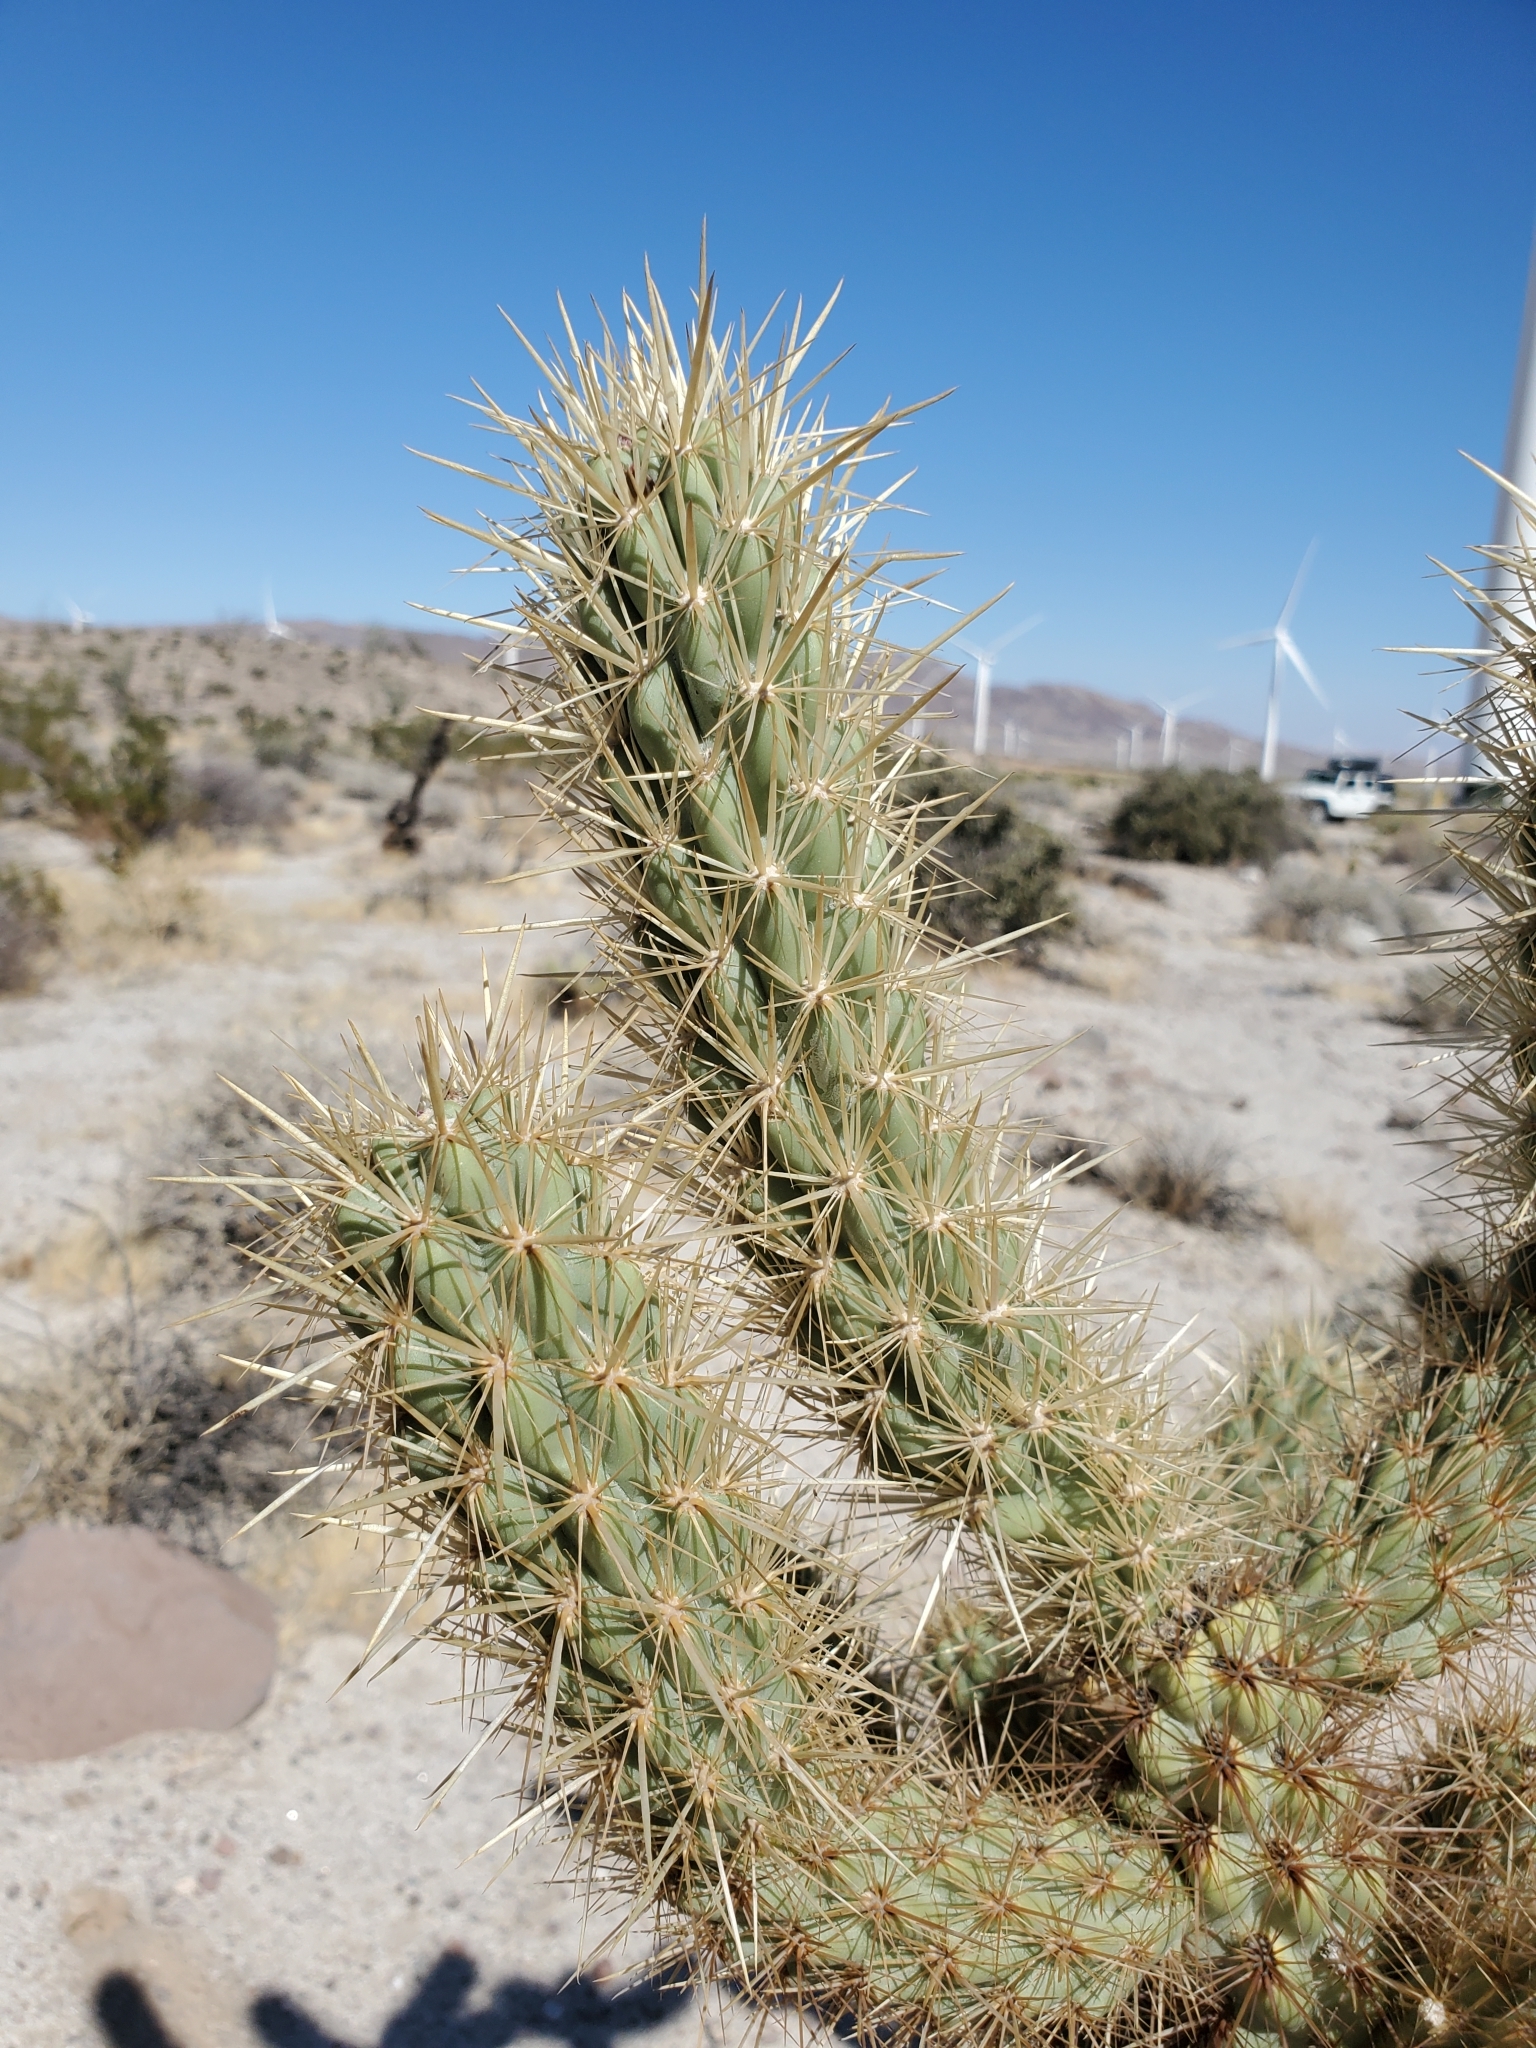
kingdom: Plantae
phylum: Tracheophyta
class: Magnoliopsida
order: Caryophyllales
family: Cactaceae
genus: Cylindropuntia
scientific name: Cylindropuntia wolfii
